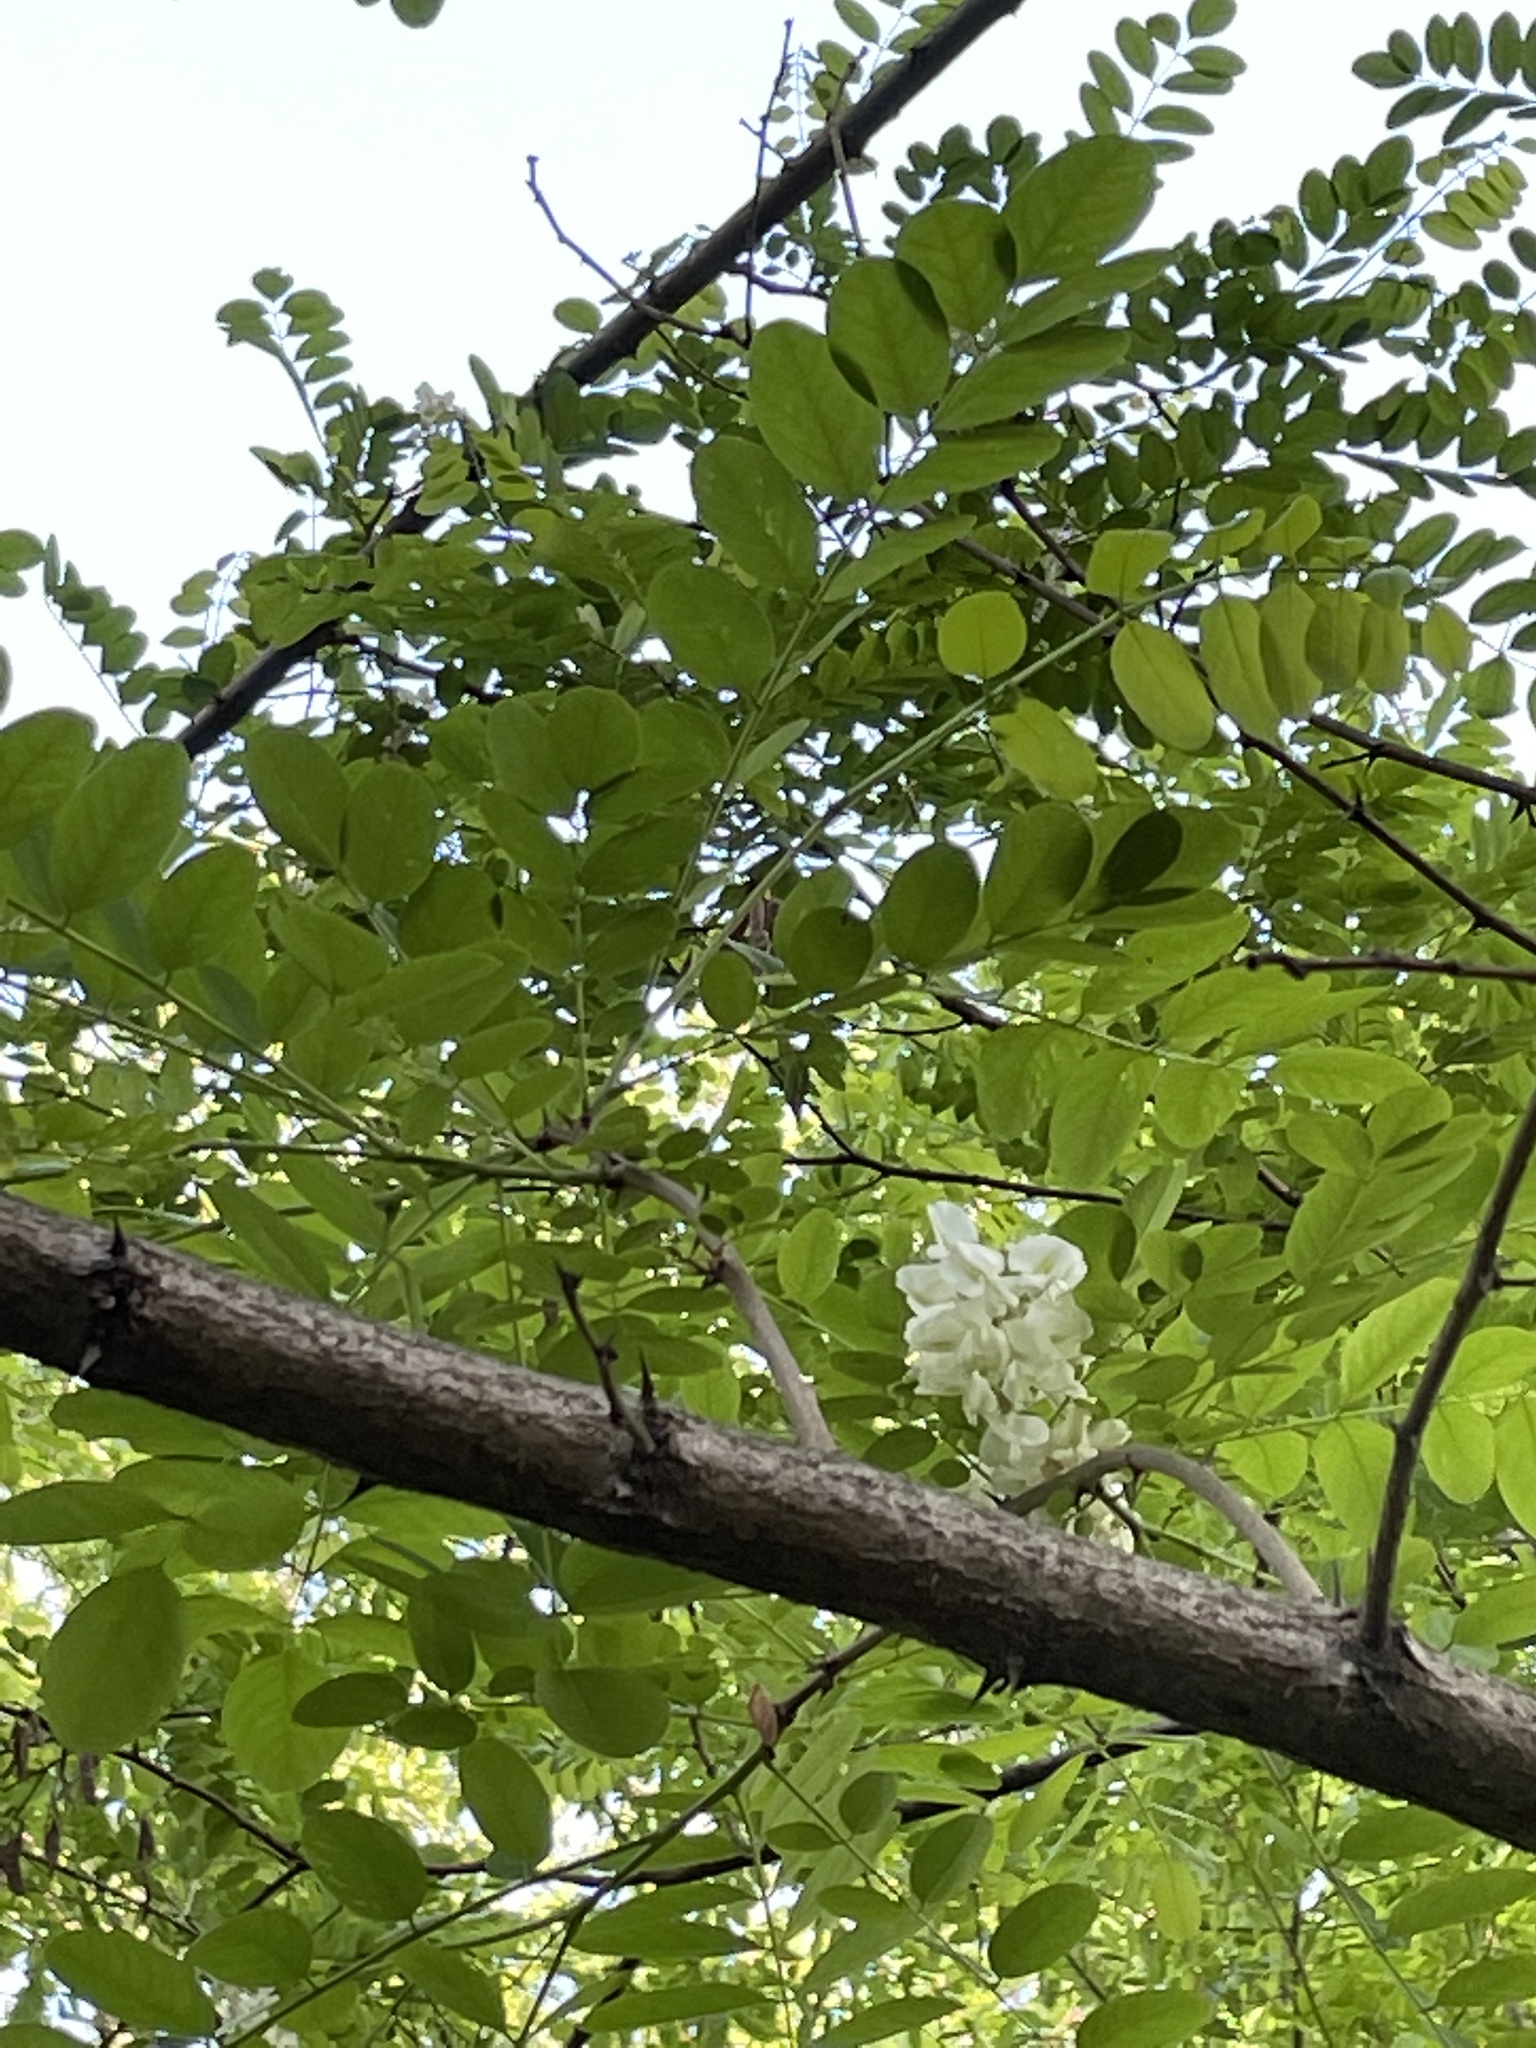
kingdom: Plantae
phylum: Tracheophyta
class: Magnoliopsida
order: Fabales
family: Fabaceae
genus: Robinia
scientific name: Robinia pseudoacacia
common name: Black locust
